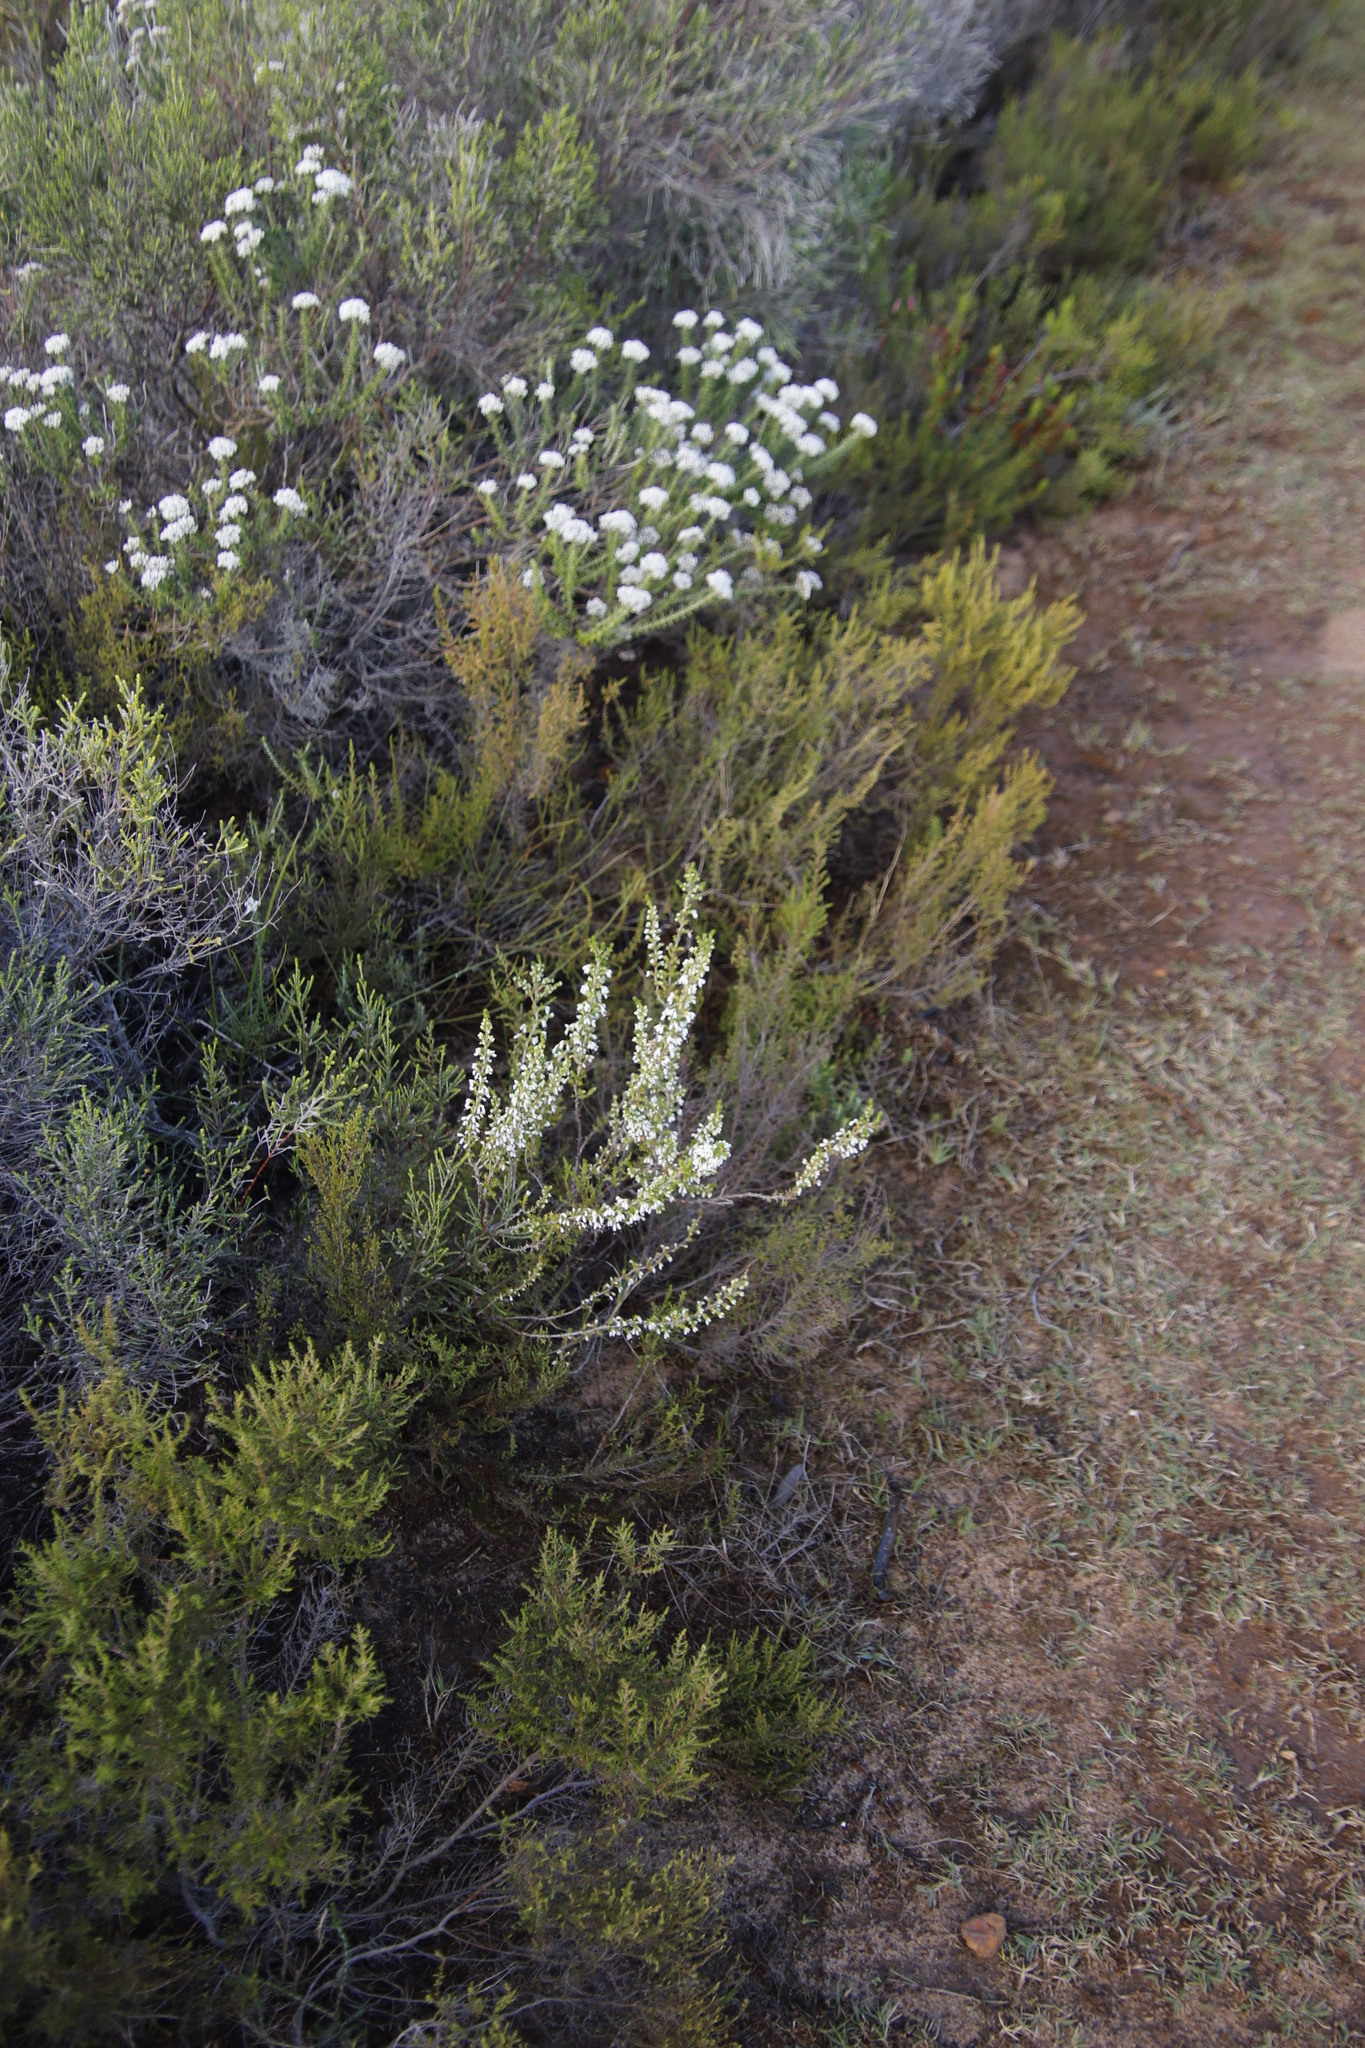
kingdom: Plantae
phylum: Tracheophyta
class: Magnoliopsida
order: Ericales
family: Ericaceae
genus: Erica
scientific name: Erica imbricata
